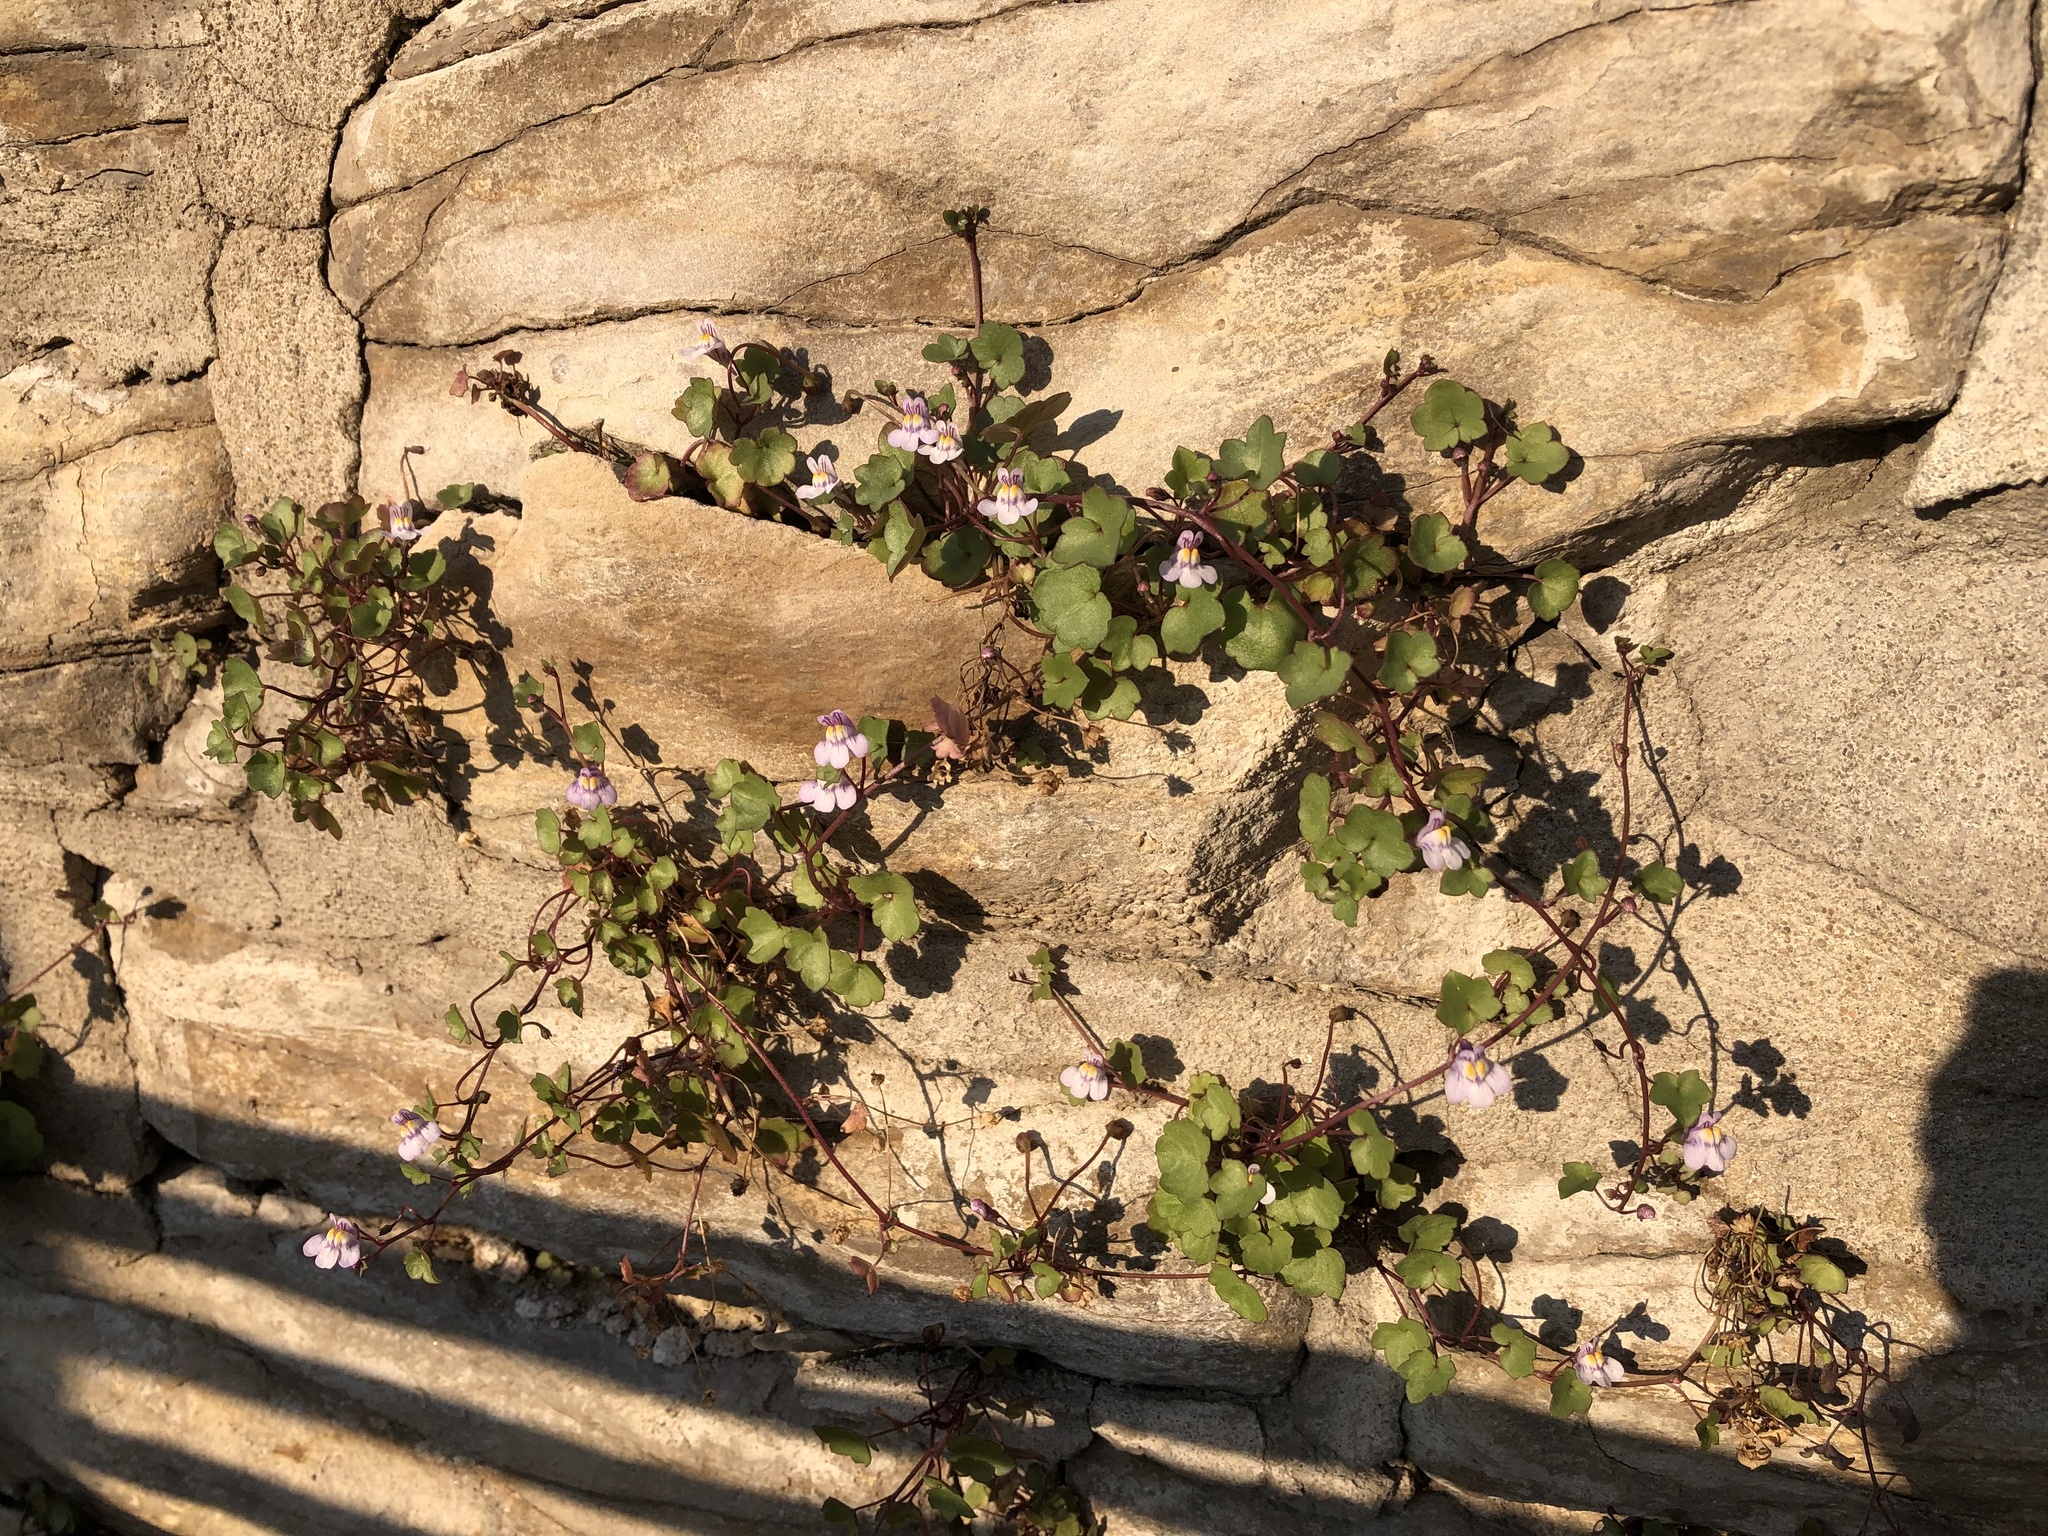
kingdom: Plantae
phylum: Tracheophyta
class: Magnoliopsida
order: Lamiales
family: Plantaginaceae
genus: Cymbalaria
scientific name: Cymbalaria muralis
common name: Ivy-leaved toadflax
